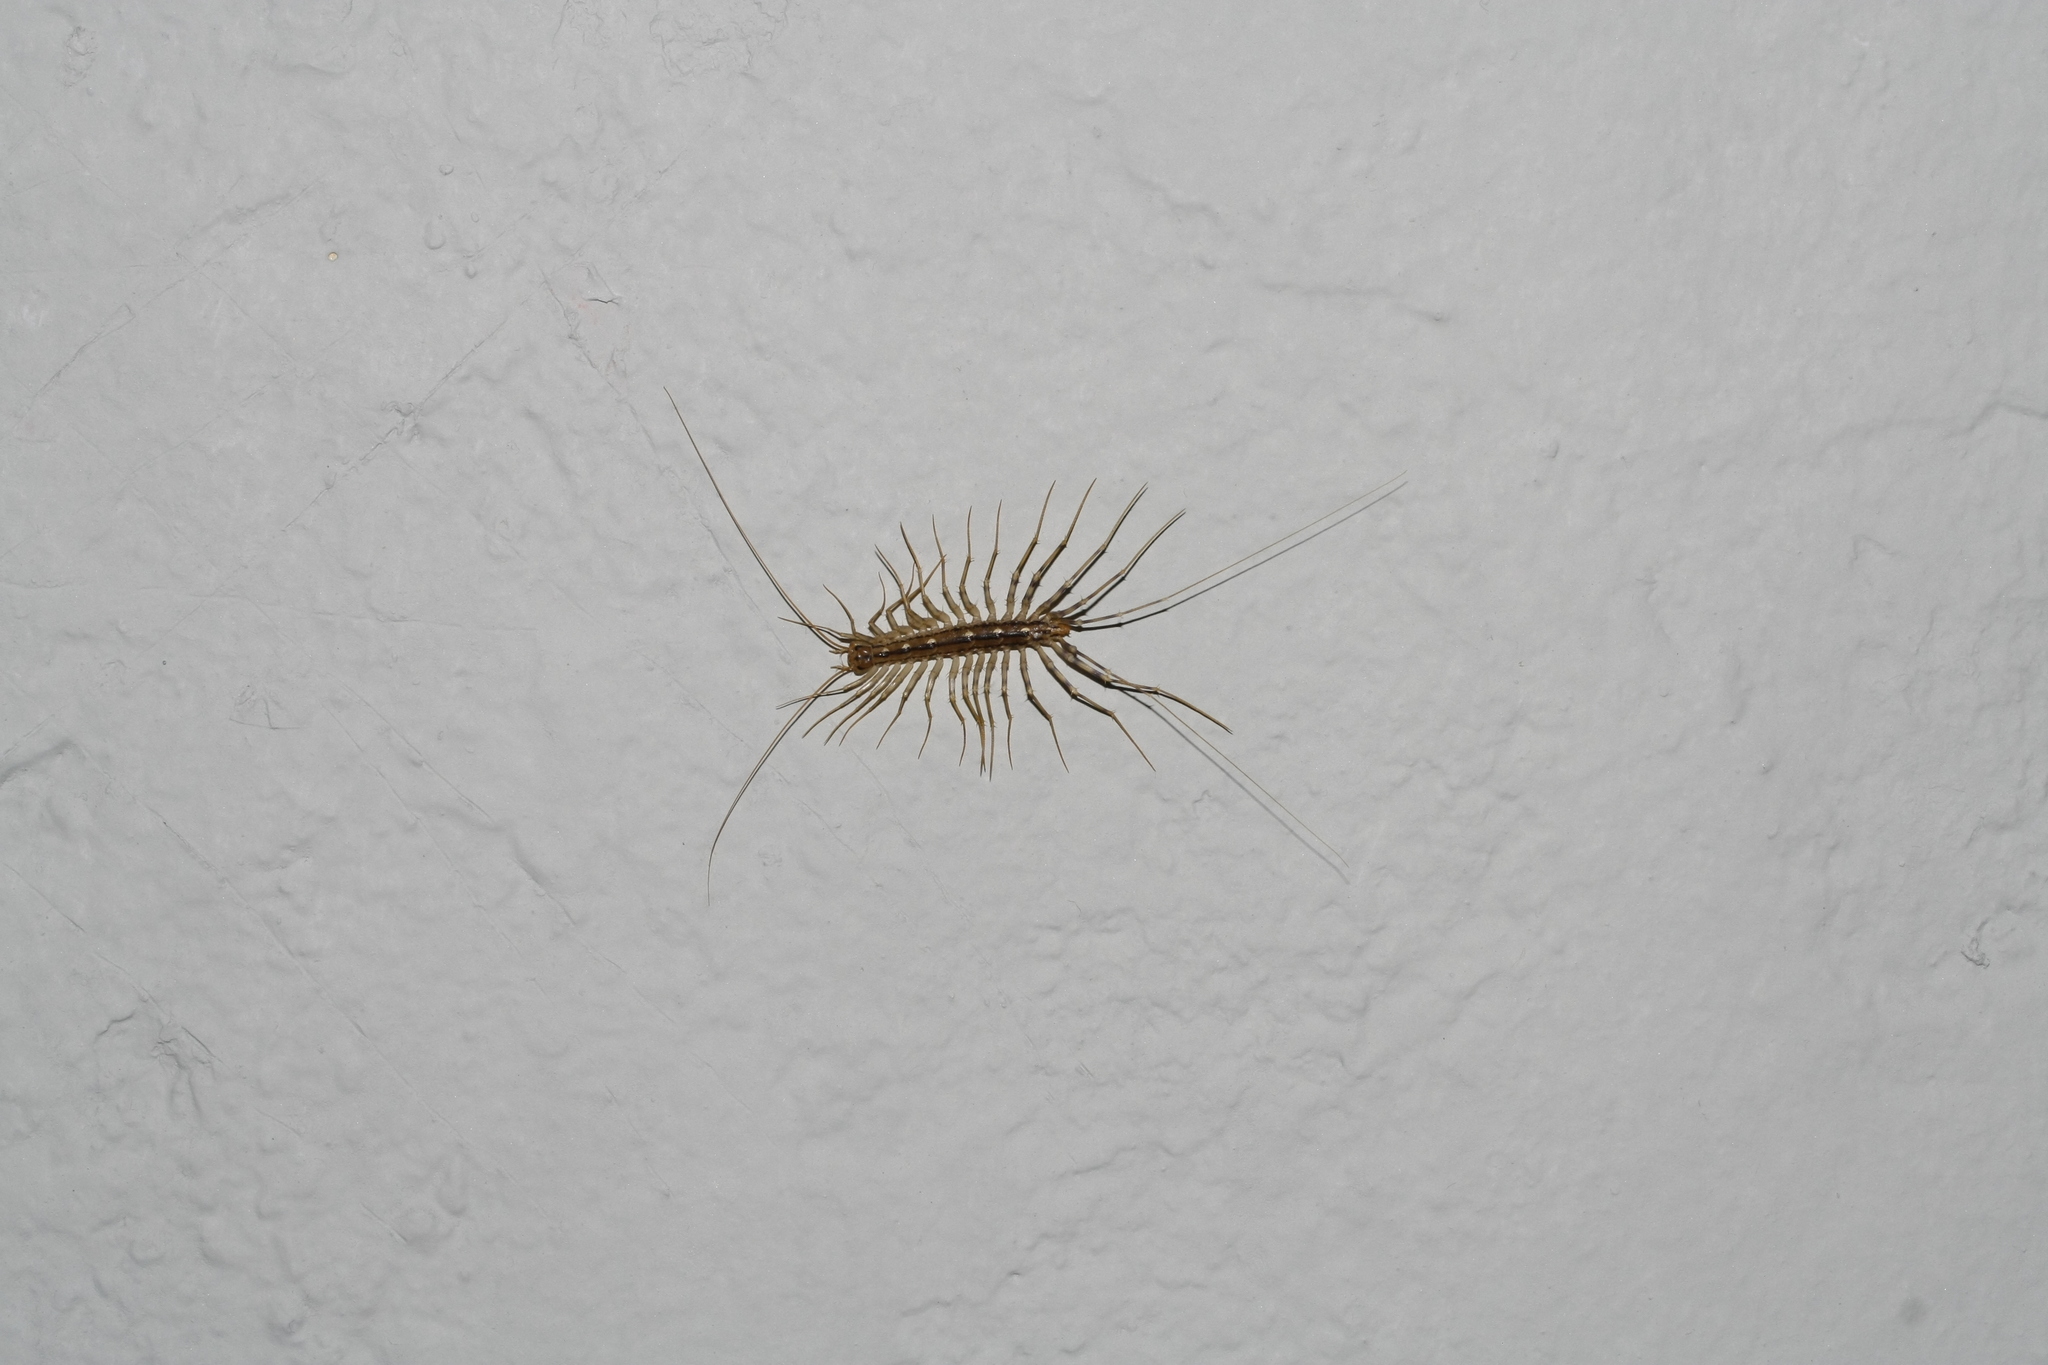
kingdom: Animalia
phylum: Arthropoda
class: Chilopoda
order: Scutigeromorpha
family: Scutigeridae
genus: Scutigera
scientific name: Scutigera coleoptrata
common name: House centipede
